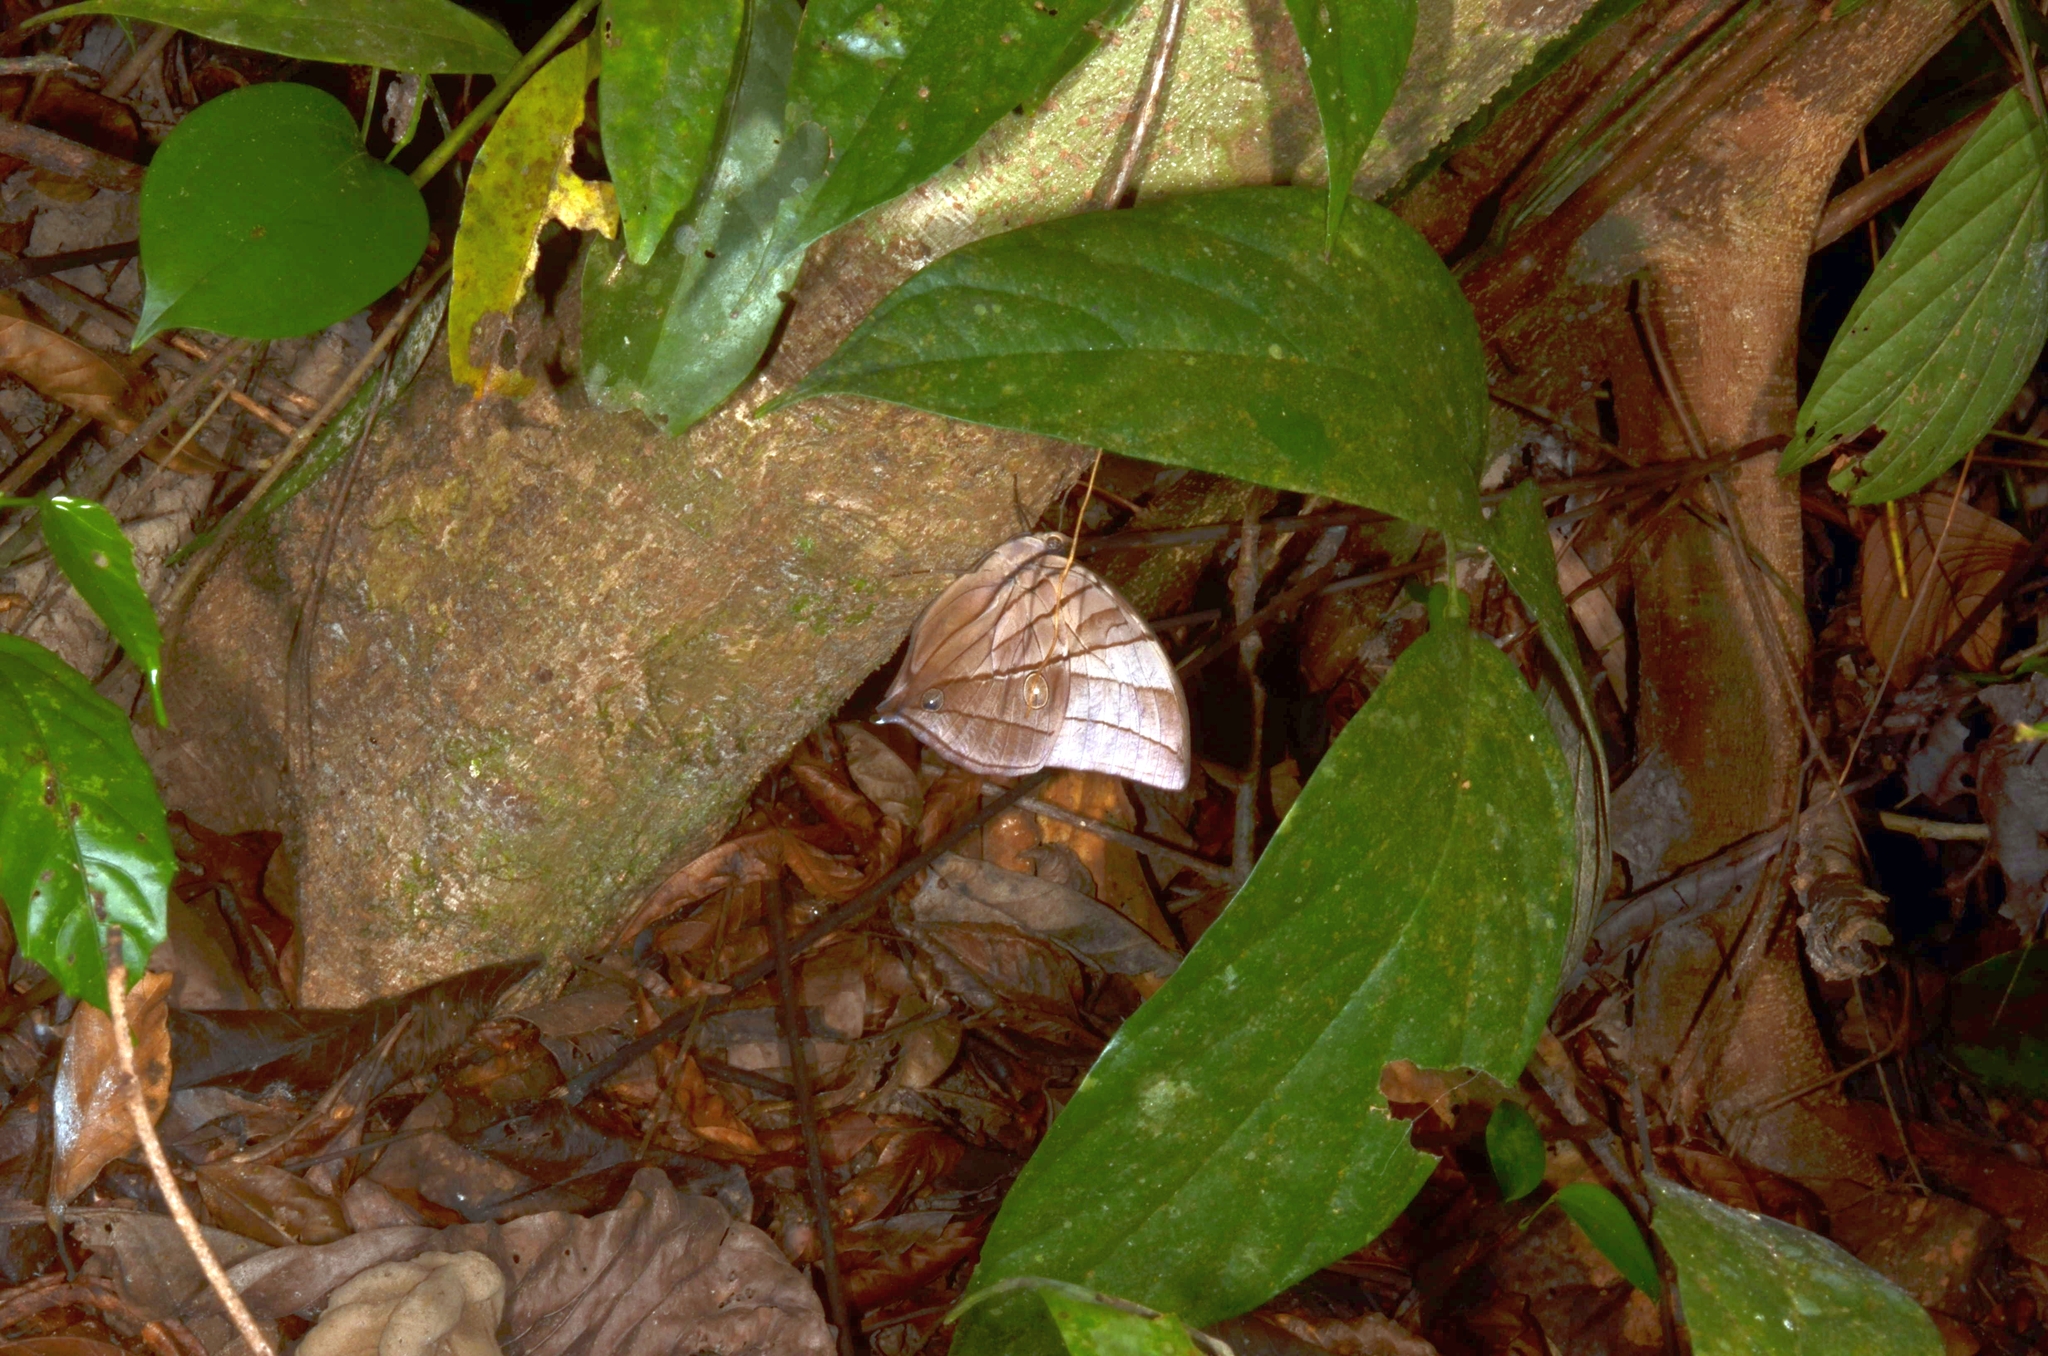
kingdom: Animalia
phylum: Arthropoda
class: Insecta
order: Lepidoptera
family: Nymphalidae
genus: Amathuxidia
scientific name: Amathuxidia amythaon
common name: Koh-i-noor
